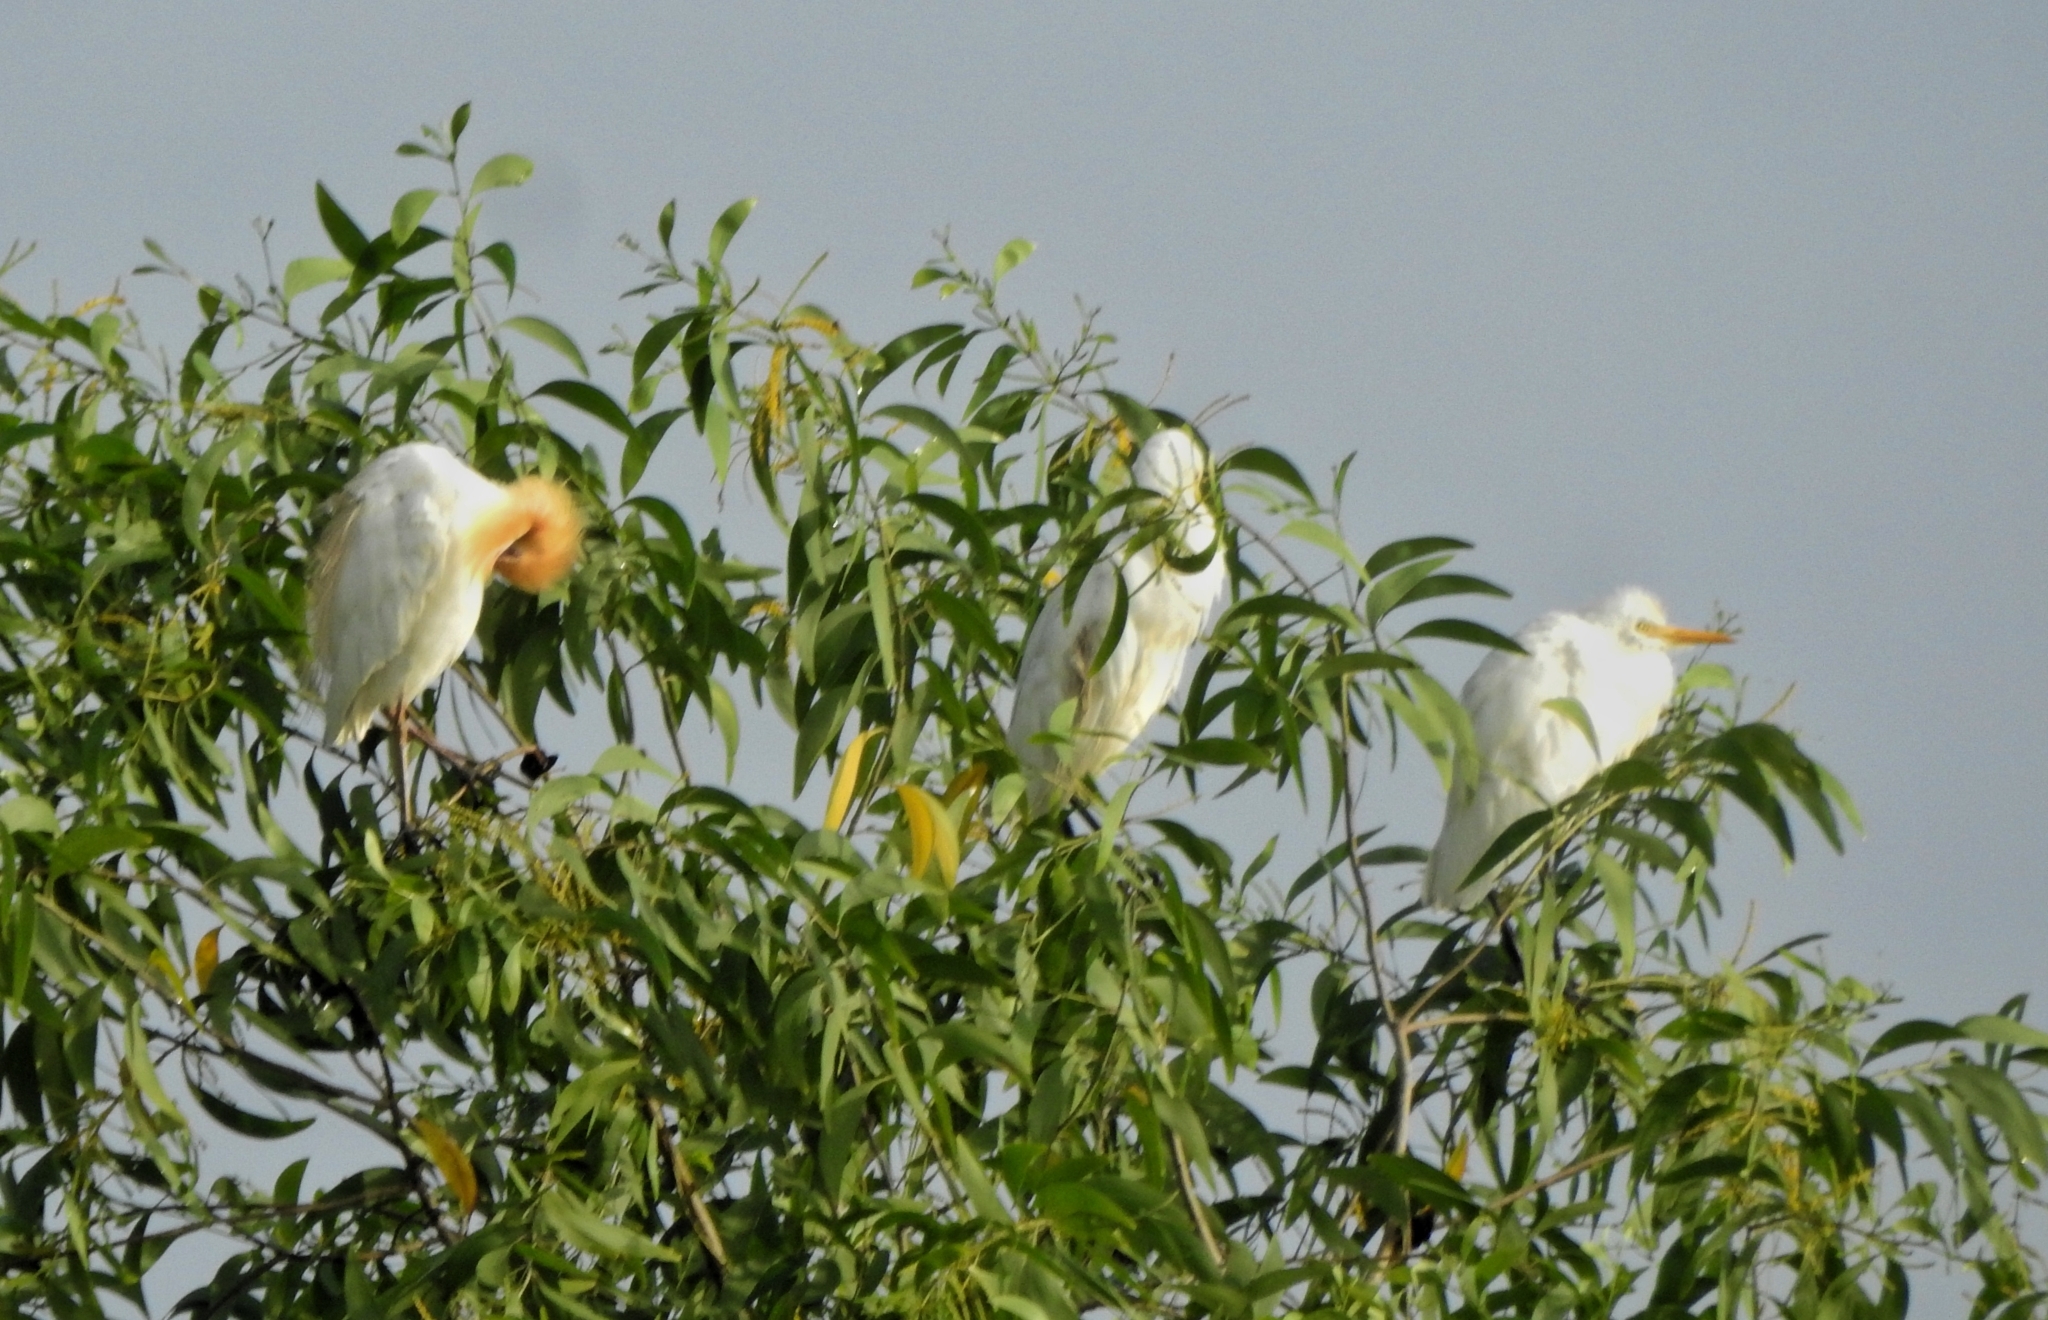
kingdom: Animalia
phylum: Chordata
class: Aves
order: Pelecaniformes
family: Ardeidae
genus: Bubulcus
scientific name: Bubulcus coromandus
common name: Eastern cattle egret
